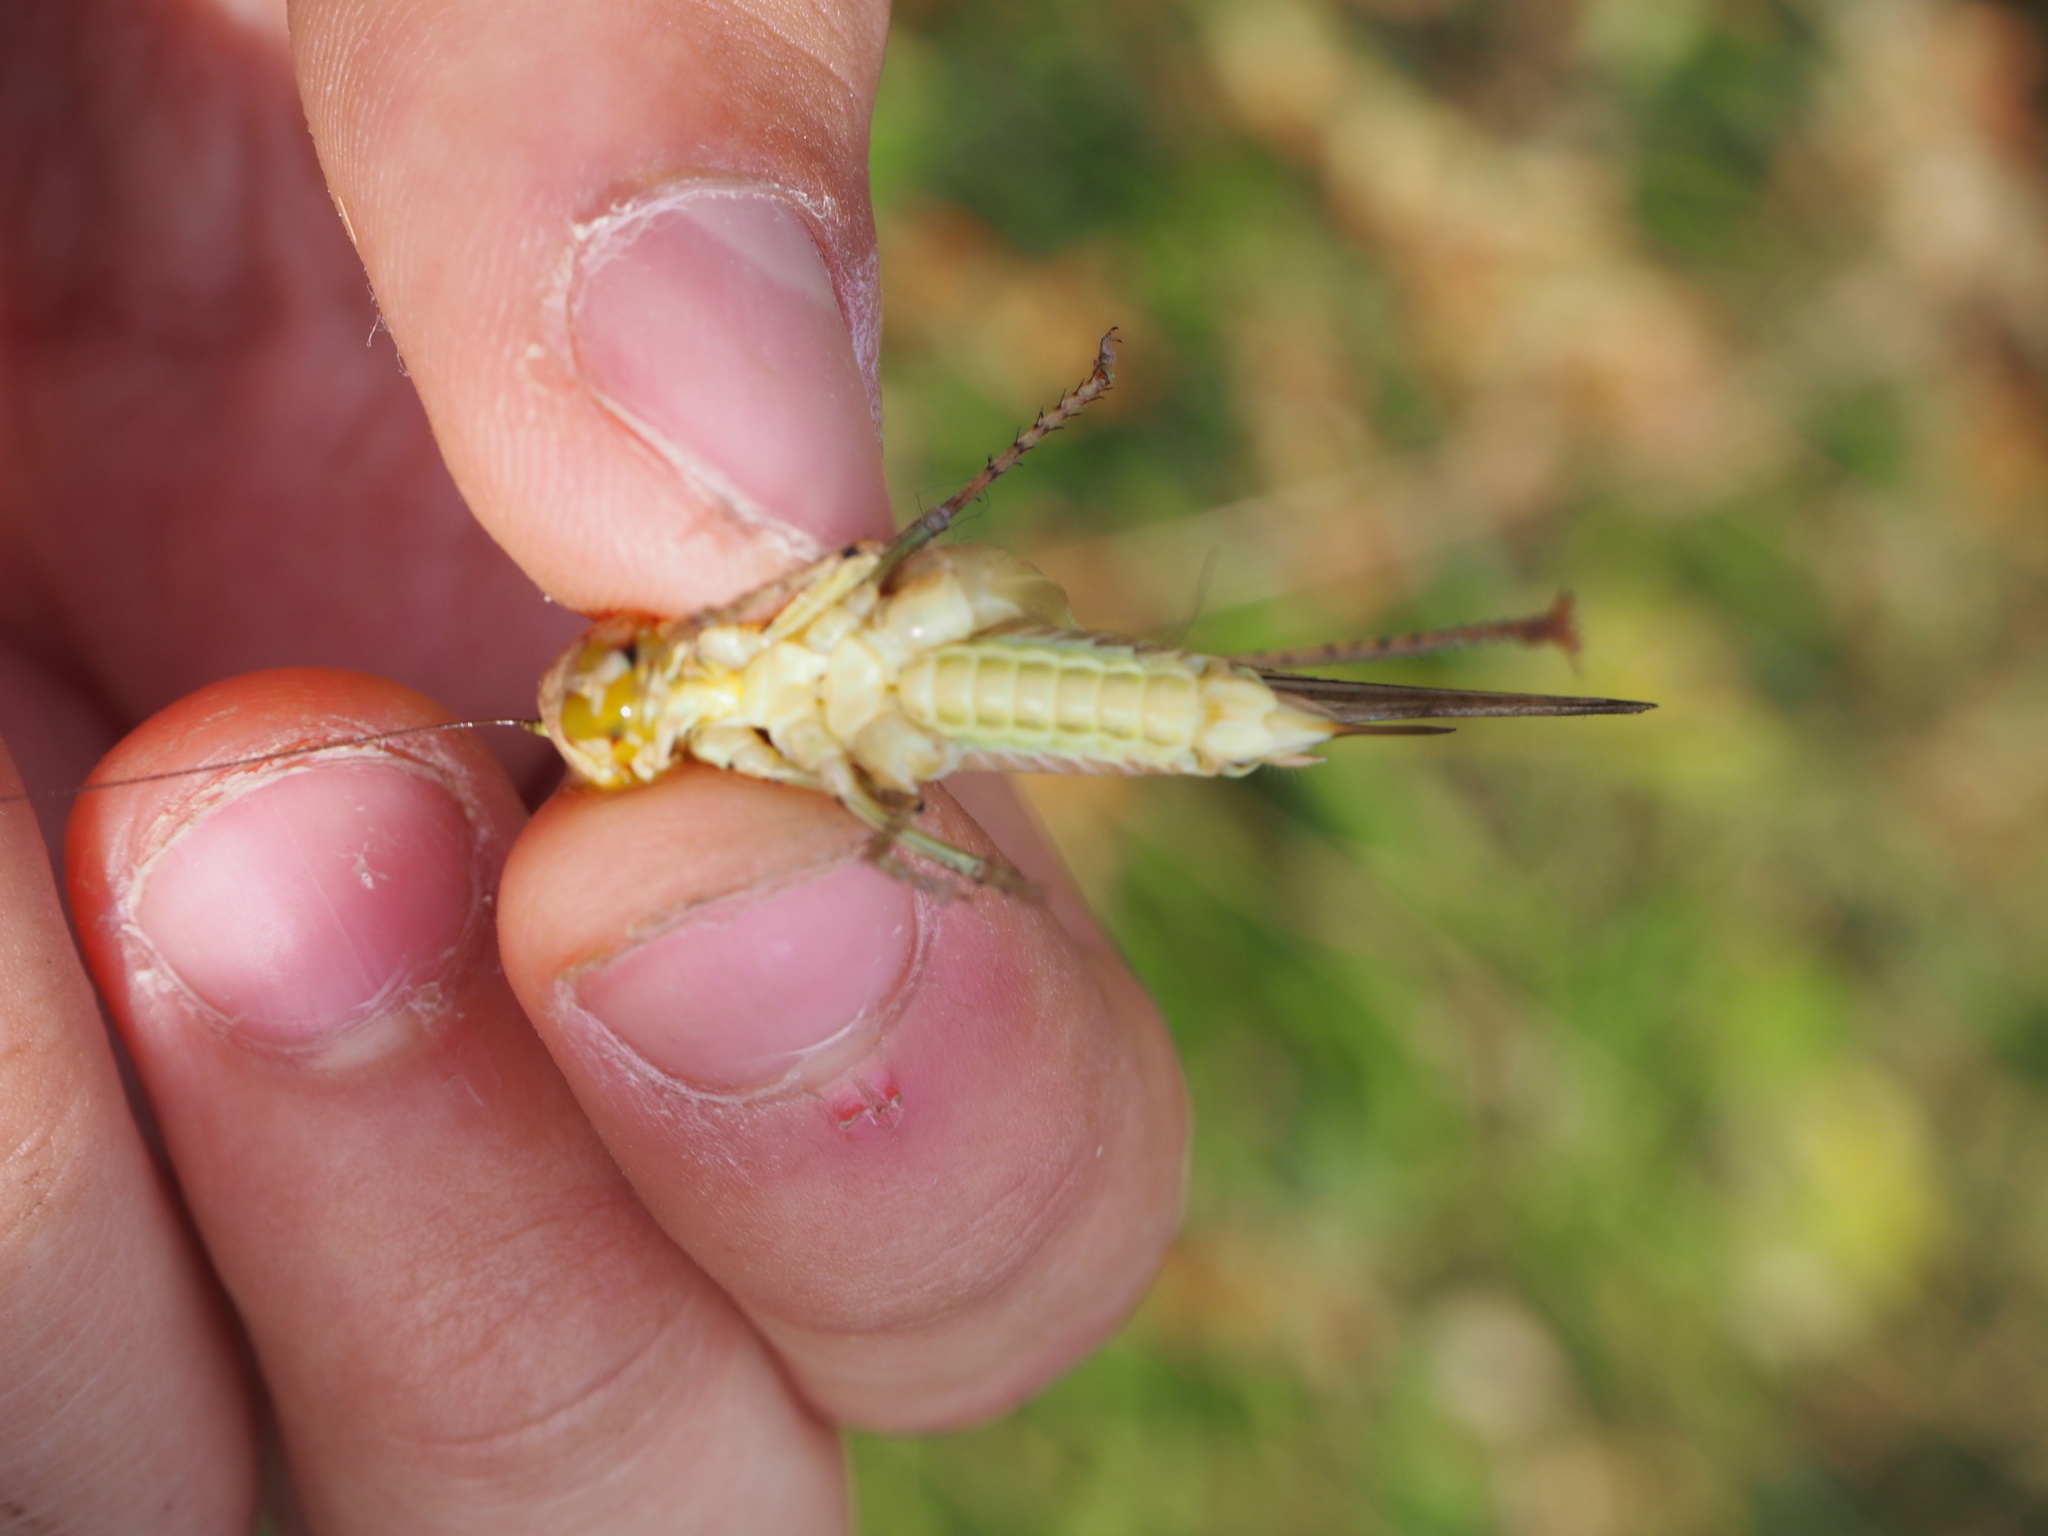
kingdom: Animalia
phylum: Arthropoda
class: Insecta
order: Orthoptera
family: Tettigoniidae
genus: Platycleis
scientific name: Platycleis grisea
